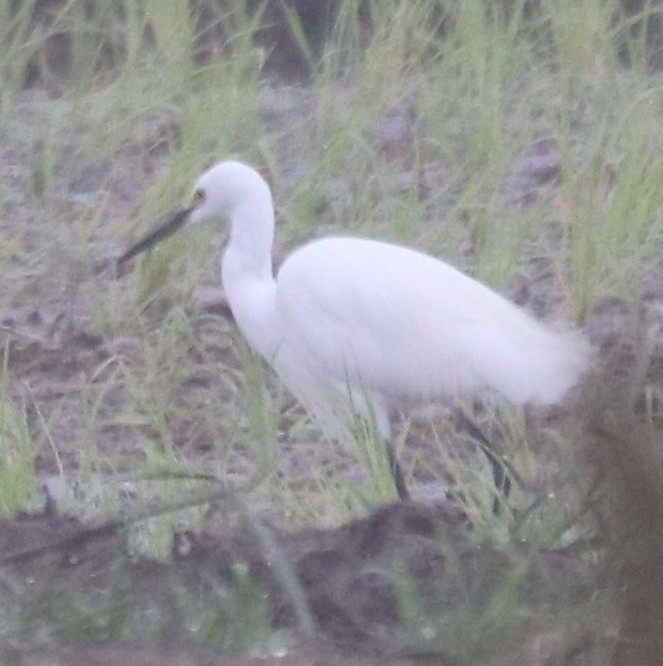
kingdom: Animalia
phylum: Chordata
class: Aves
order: Pelecaniformes
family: Ardeidae
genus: Egretta
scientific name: Egretta garzetta
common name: Little egret
